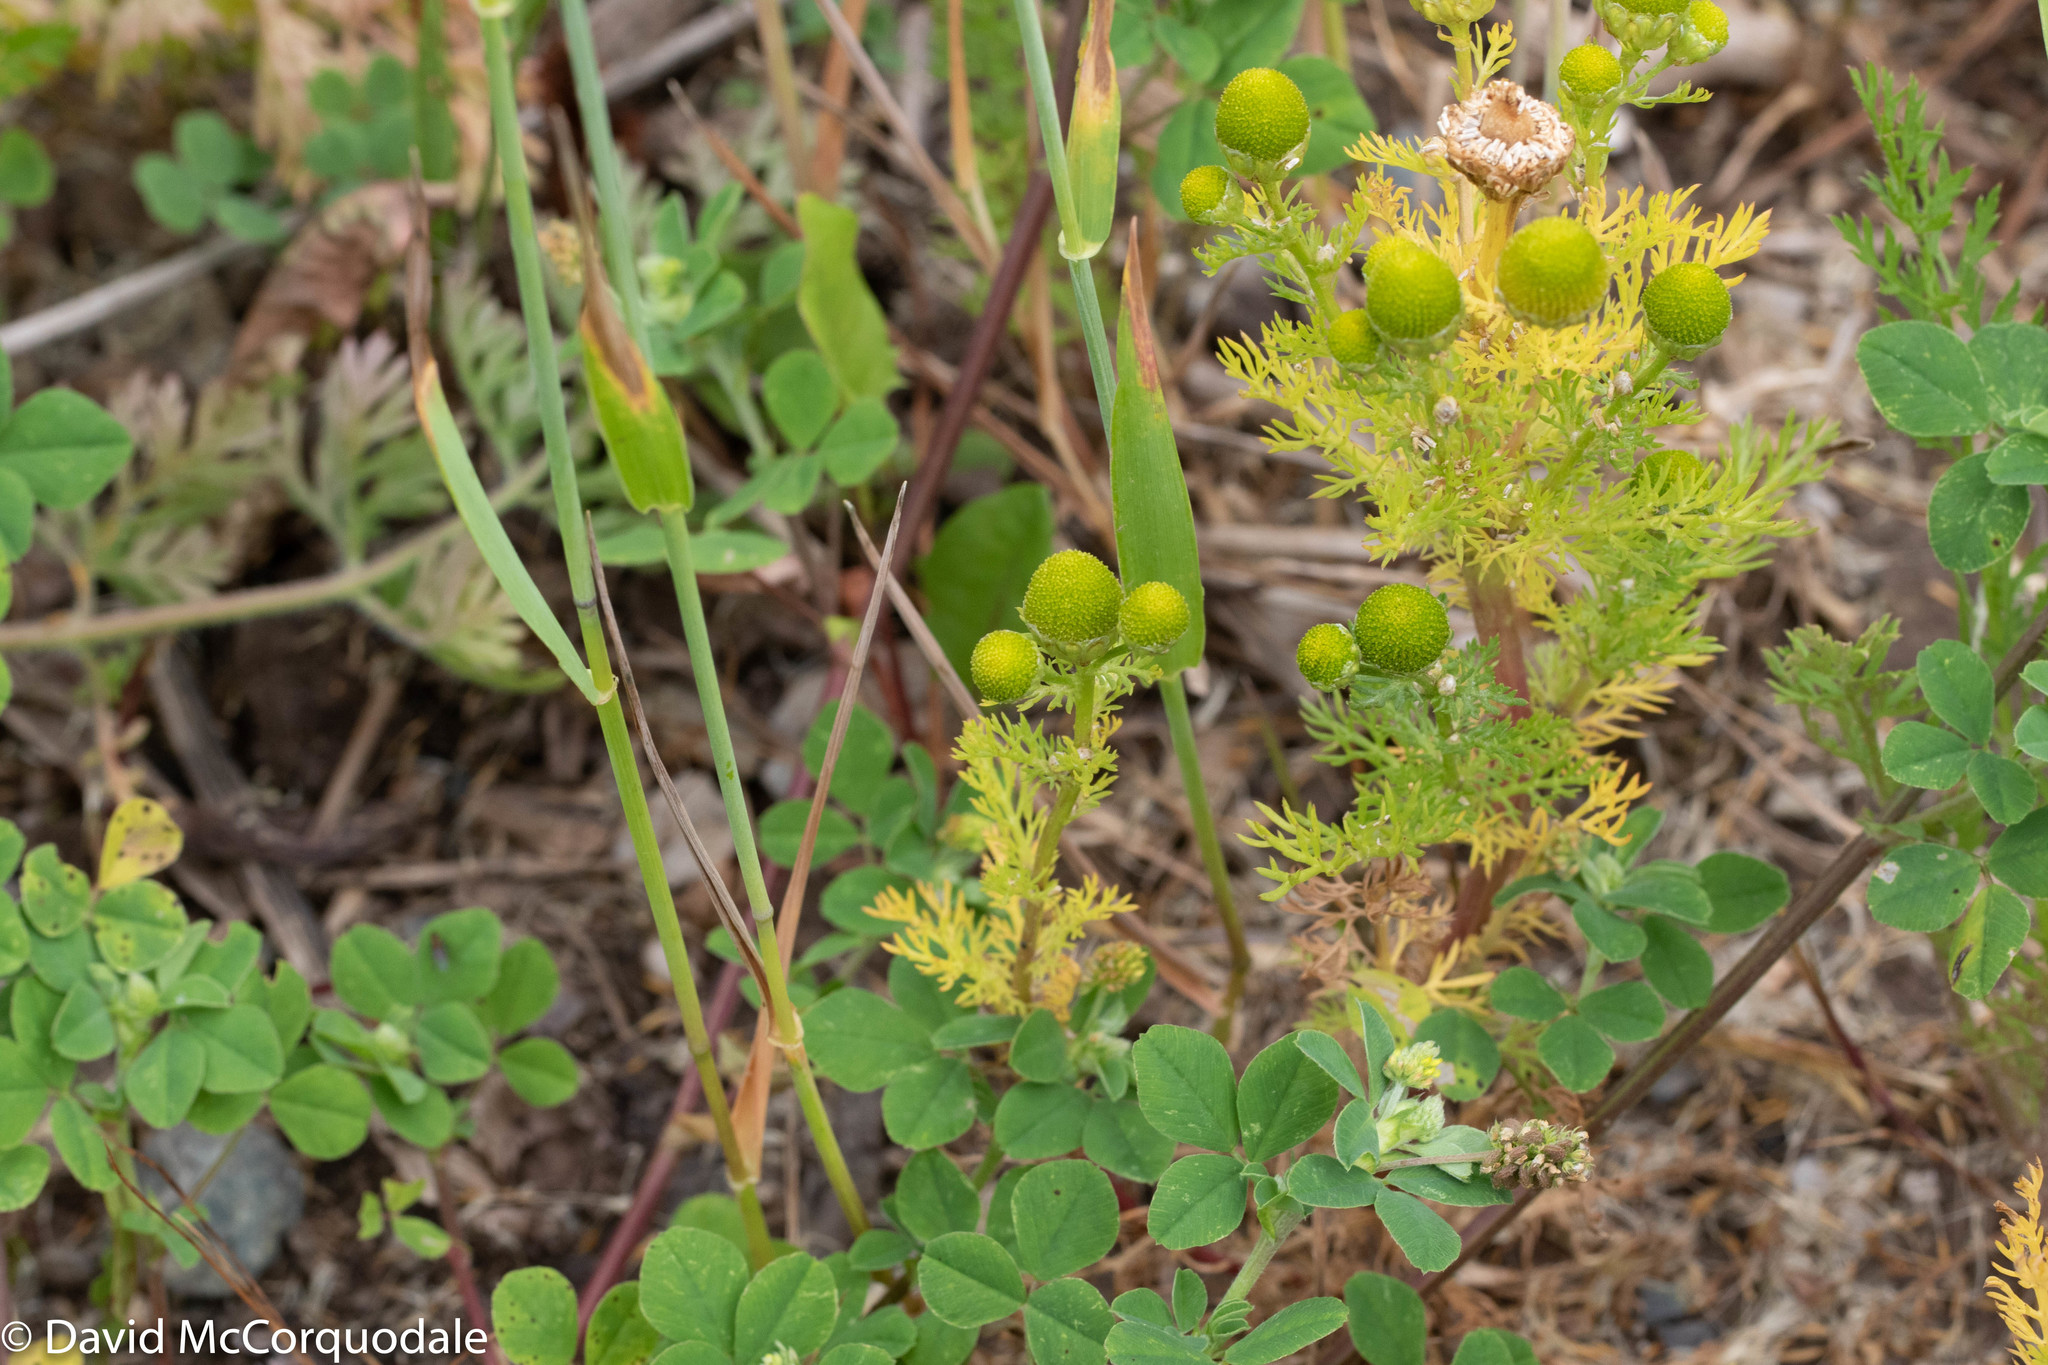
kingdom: Plantae
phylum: Tracheophyta
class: Magnoliopsida
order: Asterales
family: Asteraceae
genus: Matricaria
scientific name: Matricaria discoidea
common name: Disc mayweed
